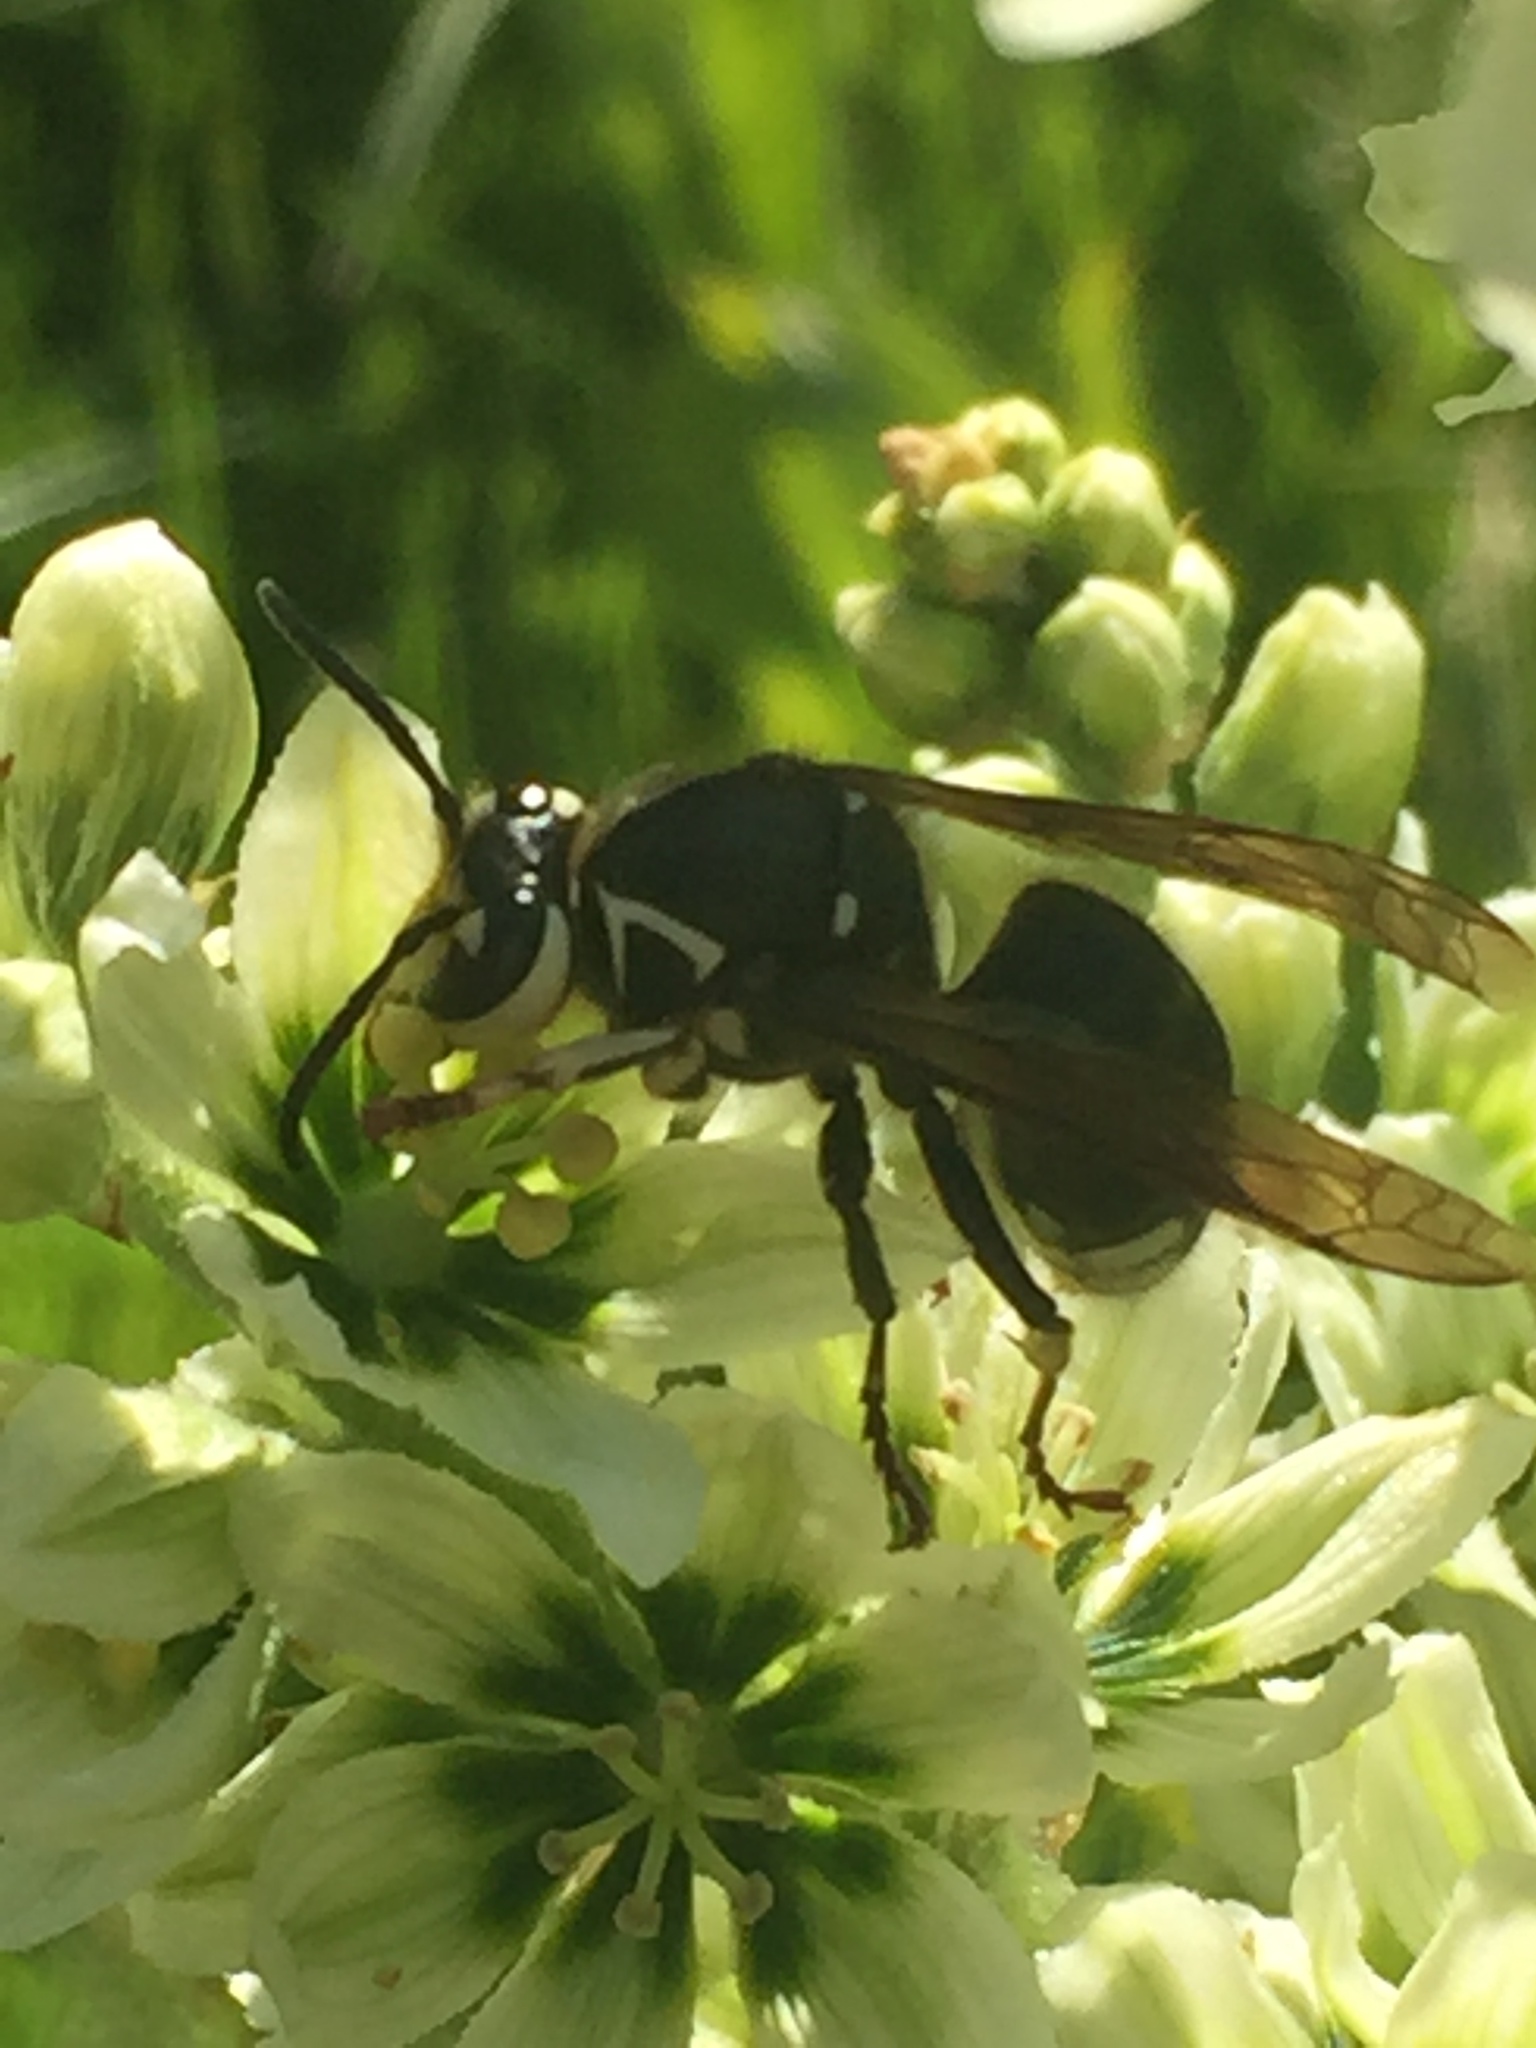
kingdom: Animalia
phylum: Arthropoda
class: Insecta
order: Hymenoptera
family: Vespidae
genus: Dolichovespula
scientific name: Dolichovespula maculata
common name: Bald-faced hornet
